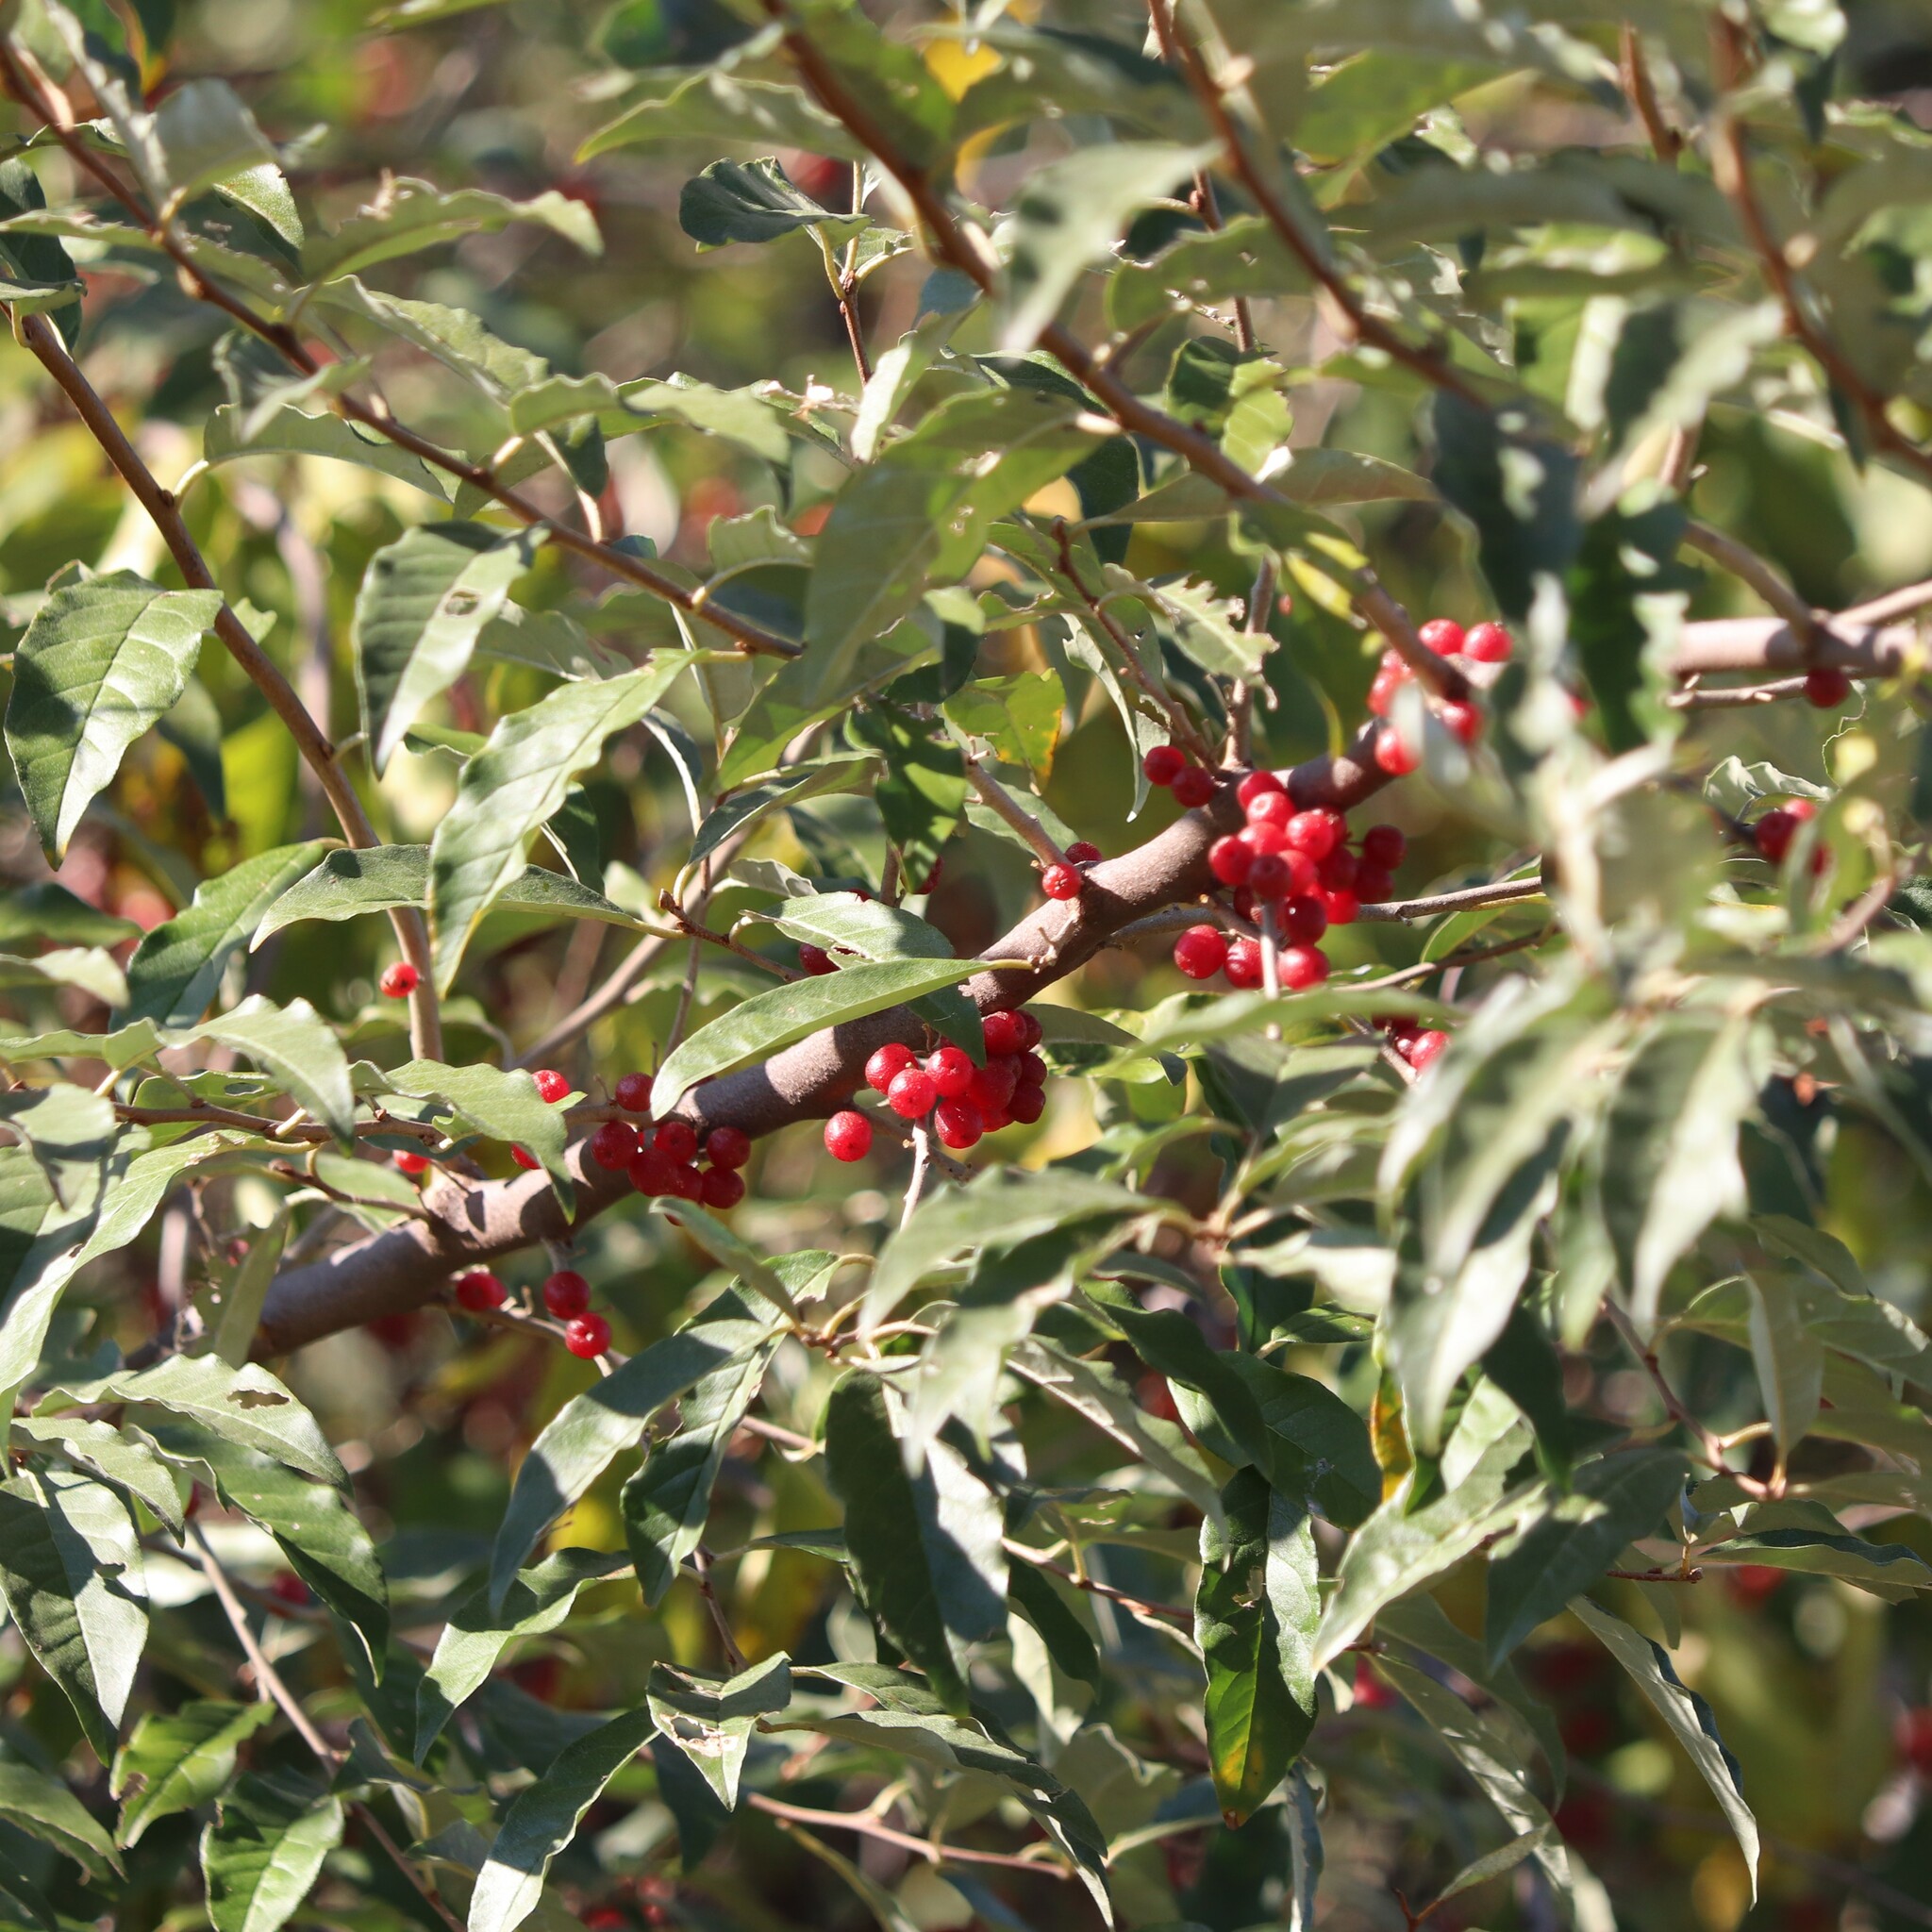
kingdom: Plantae
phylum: Tracheophyta
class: Magnoliopsida
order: Rosales
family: Elaeagnaceae
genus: Elaeagnus
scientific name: Elaeagnus umbellata
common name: Autumn olive
